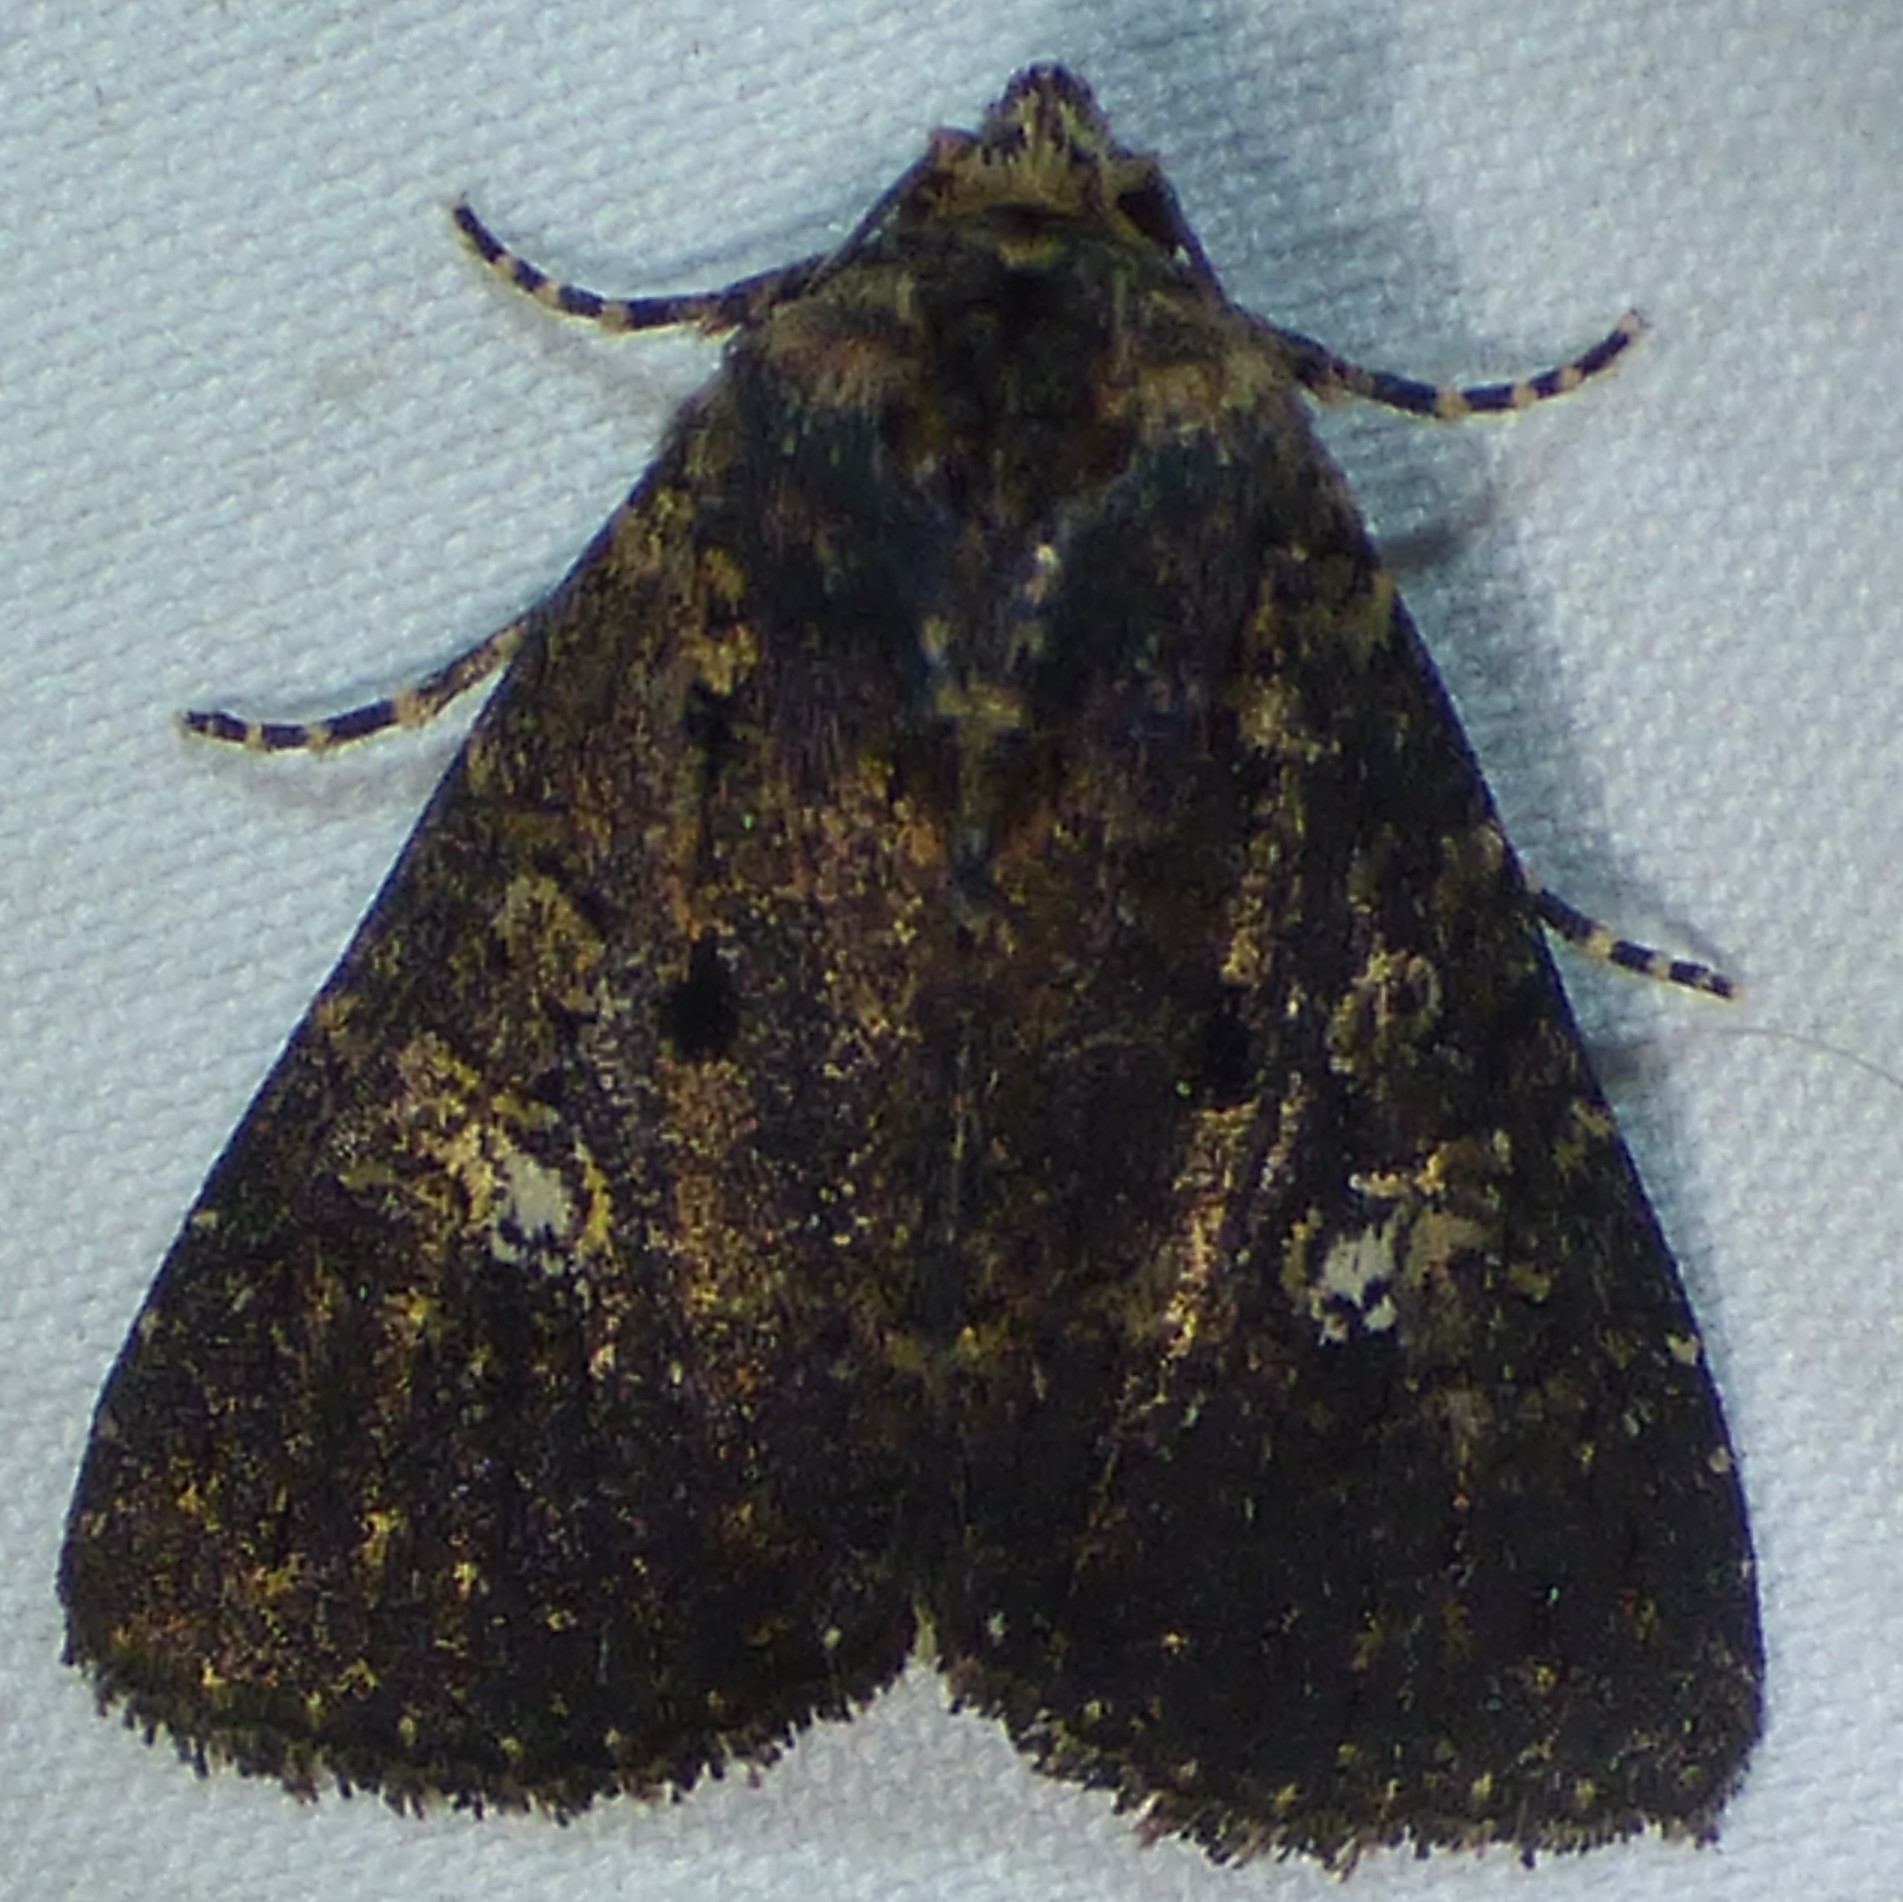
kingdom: Animalia
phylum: Arthropoda
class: Insecta
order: Lepidoptera
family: Noctuidae
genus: Condica
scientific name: Condica vecors
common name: Dusky groundling
